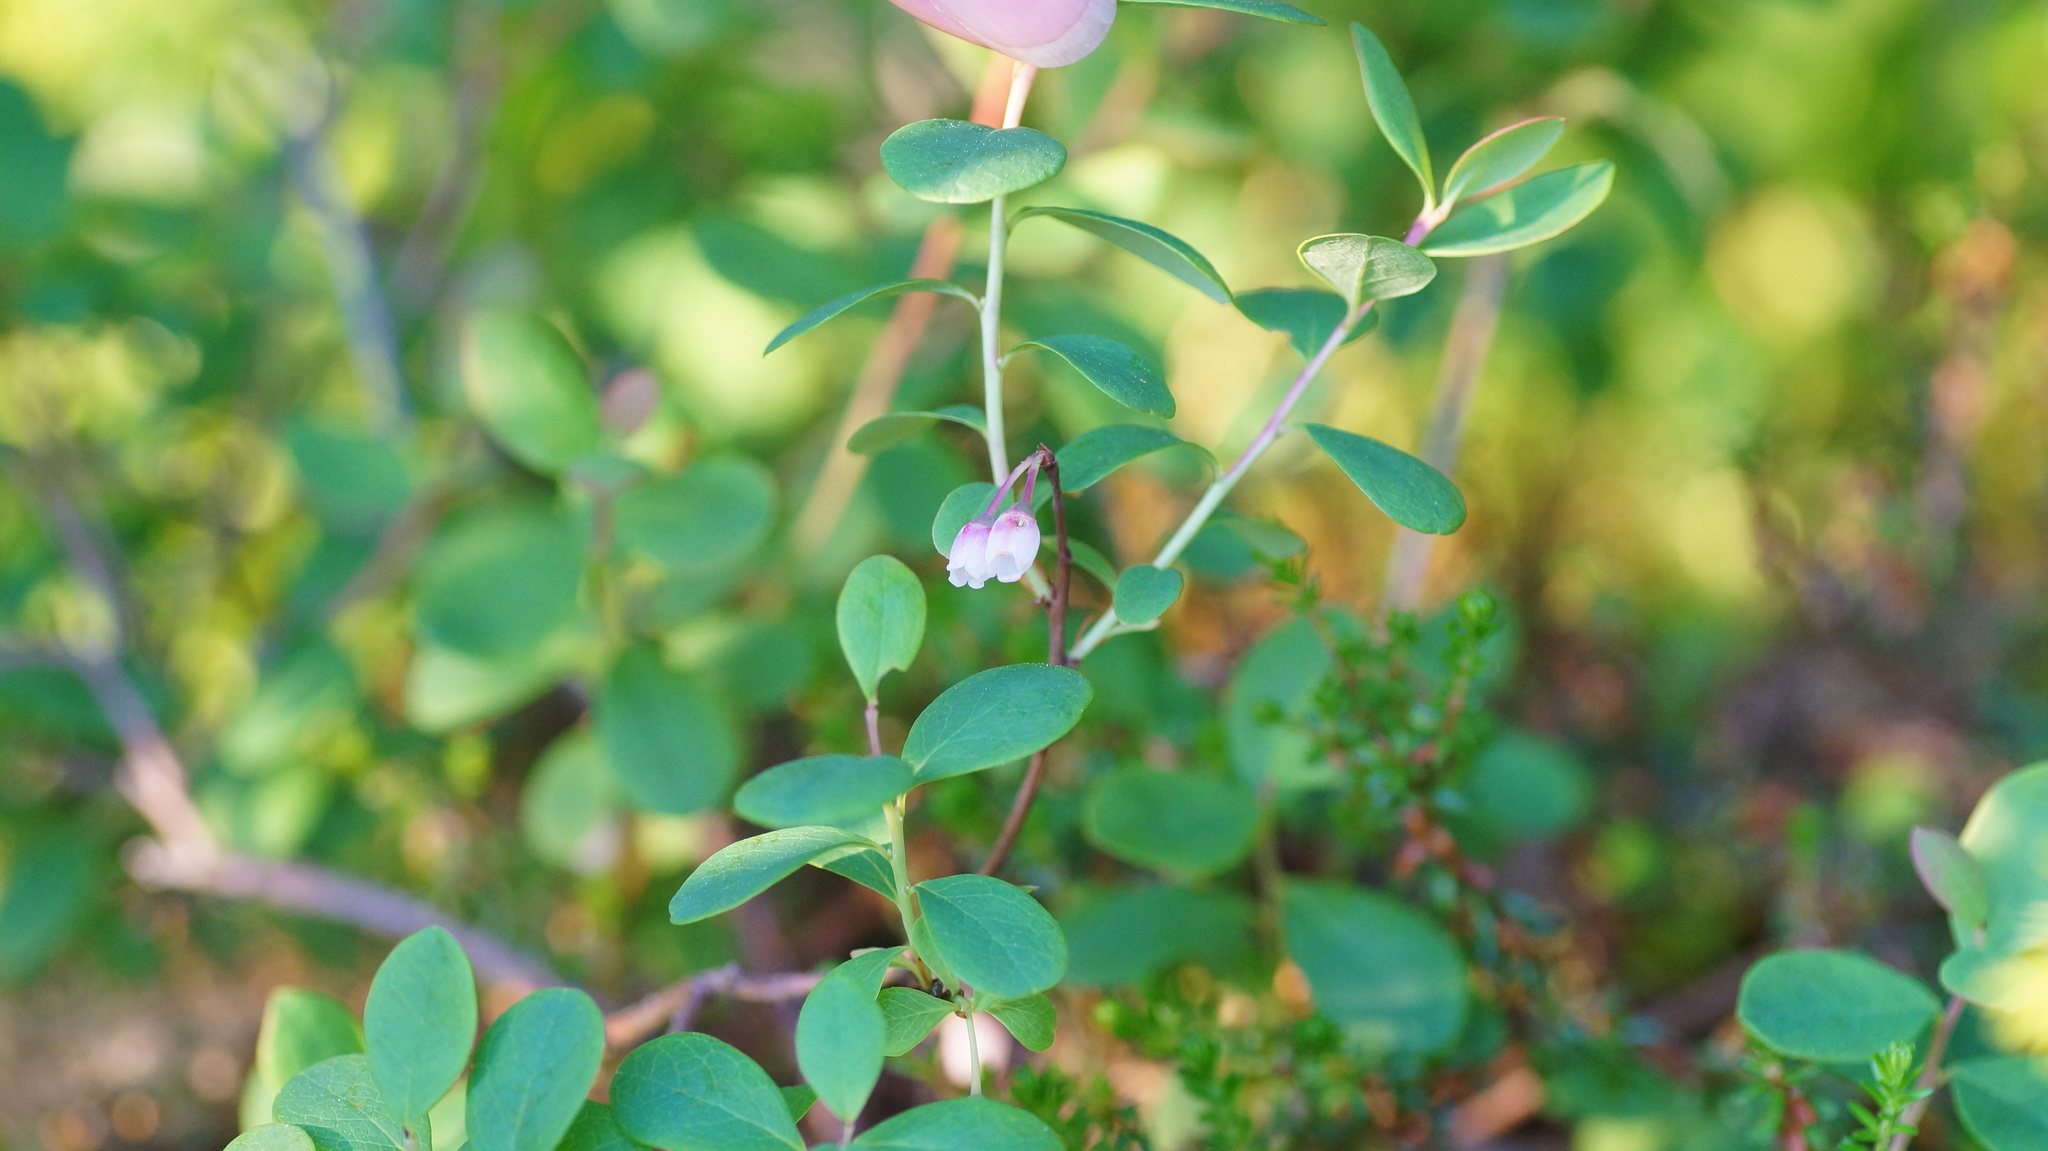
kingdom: Plantae
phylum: Tracheophyta
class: Magnoliopsida
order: Ericales
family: Ericaceae
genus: Vaccinium
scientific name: Vaccinium uliginosum
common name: Bog bilberry
